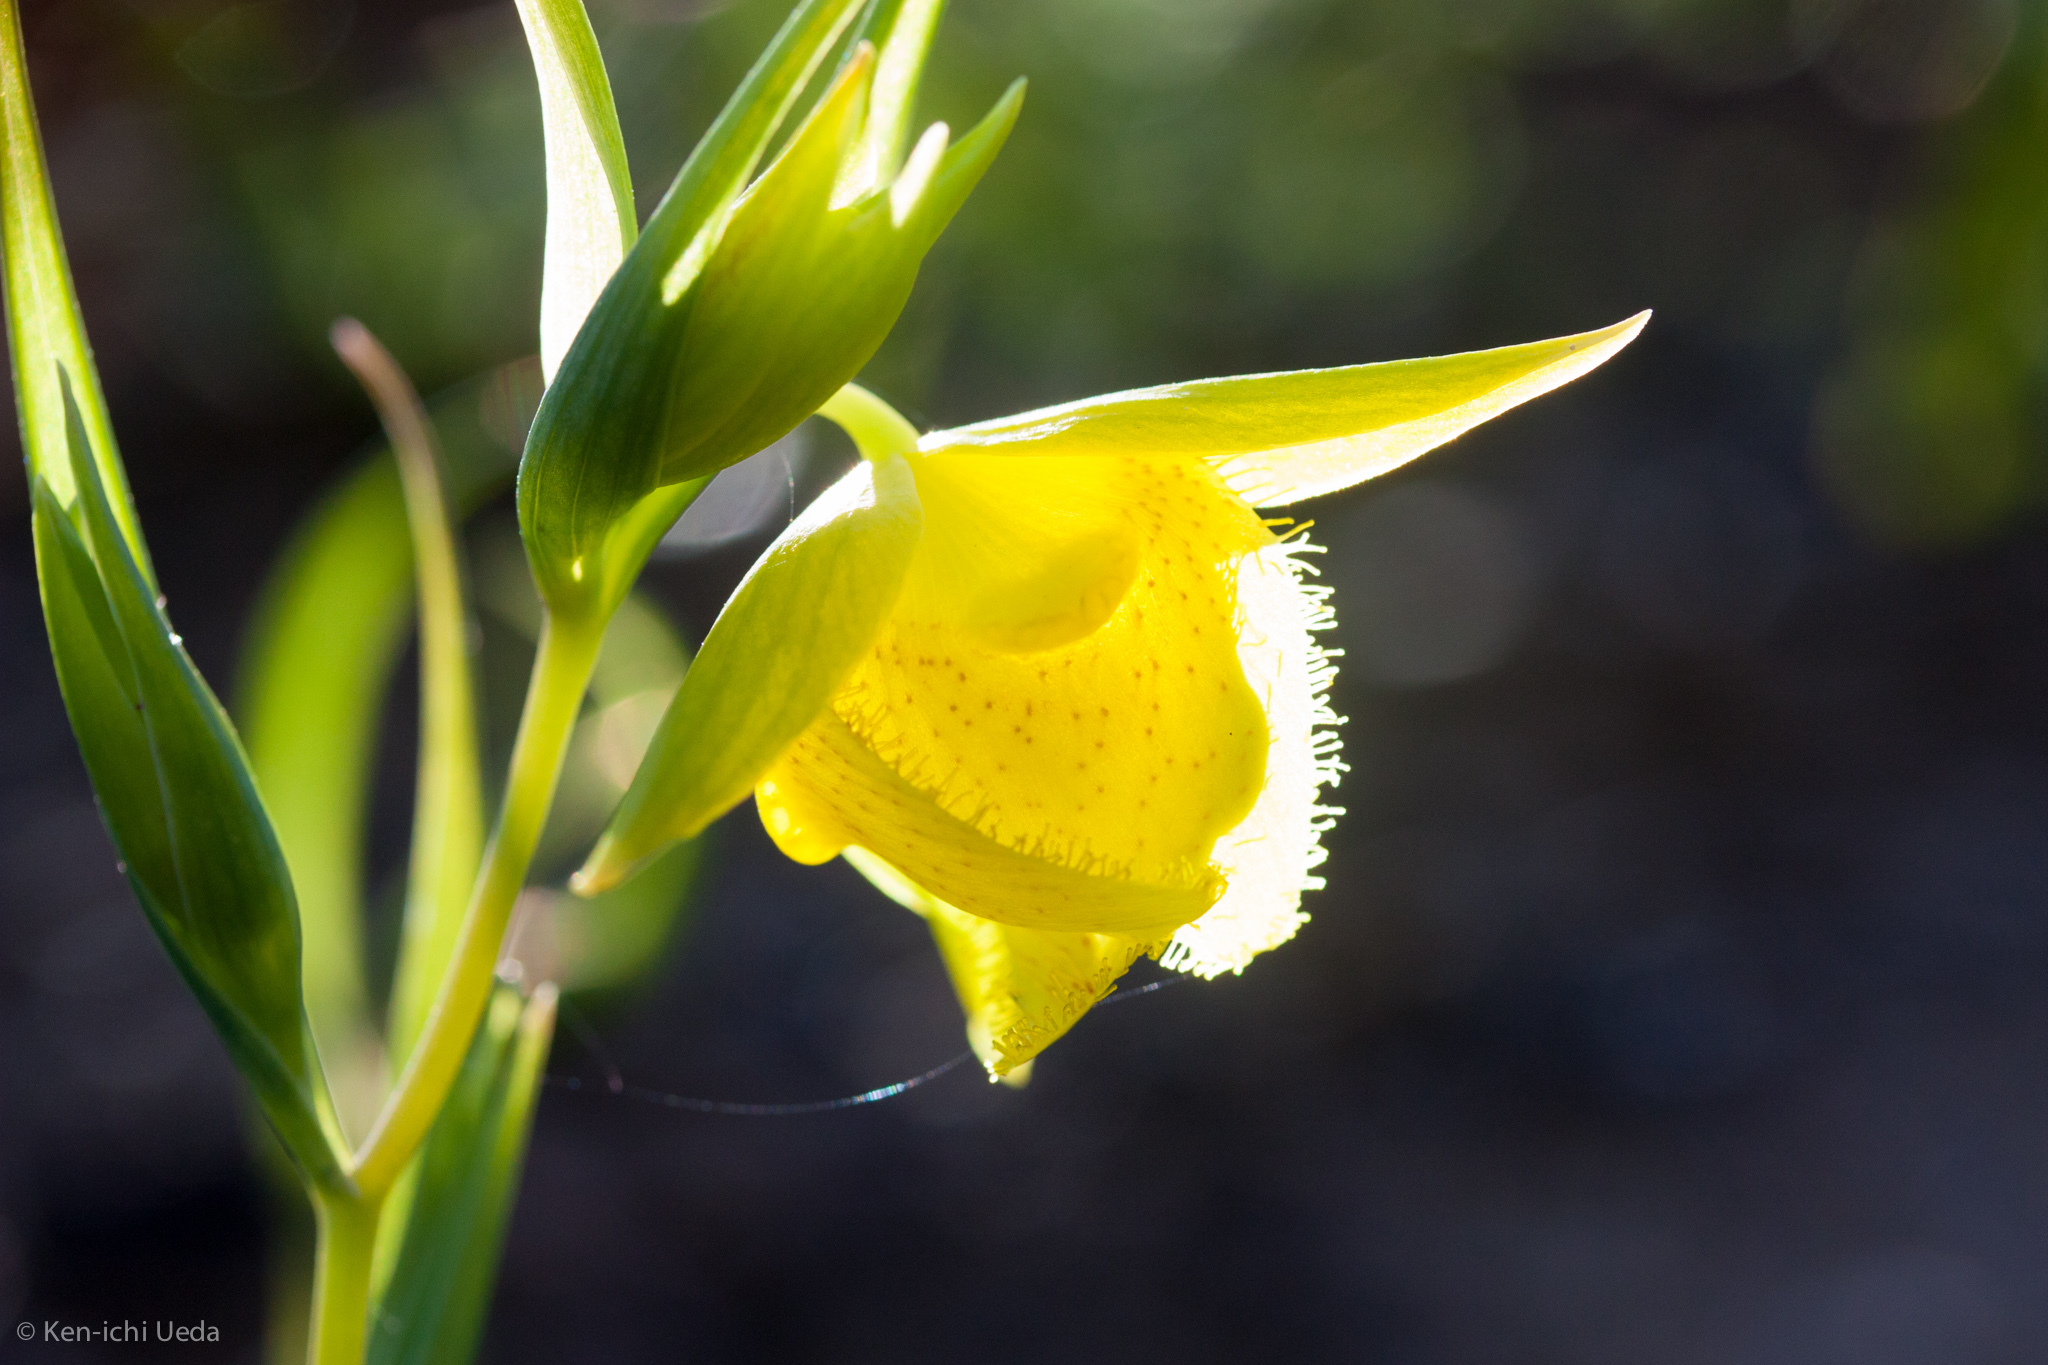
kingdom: Plantae
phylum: Tracheophyta
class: Liliopsida
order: Liliales
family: Liliaceae
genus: Calochortus
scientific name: Calochortus pulchellus
